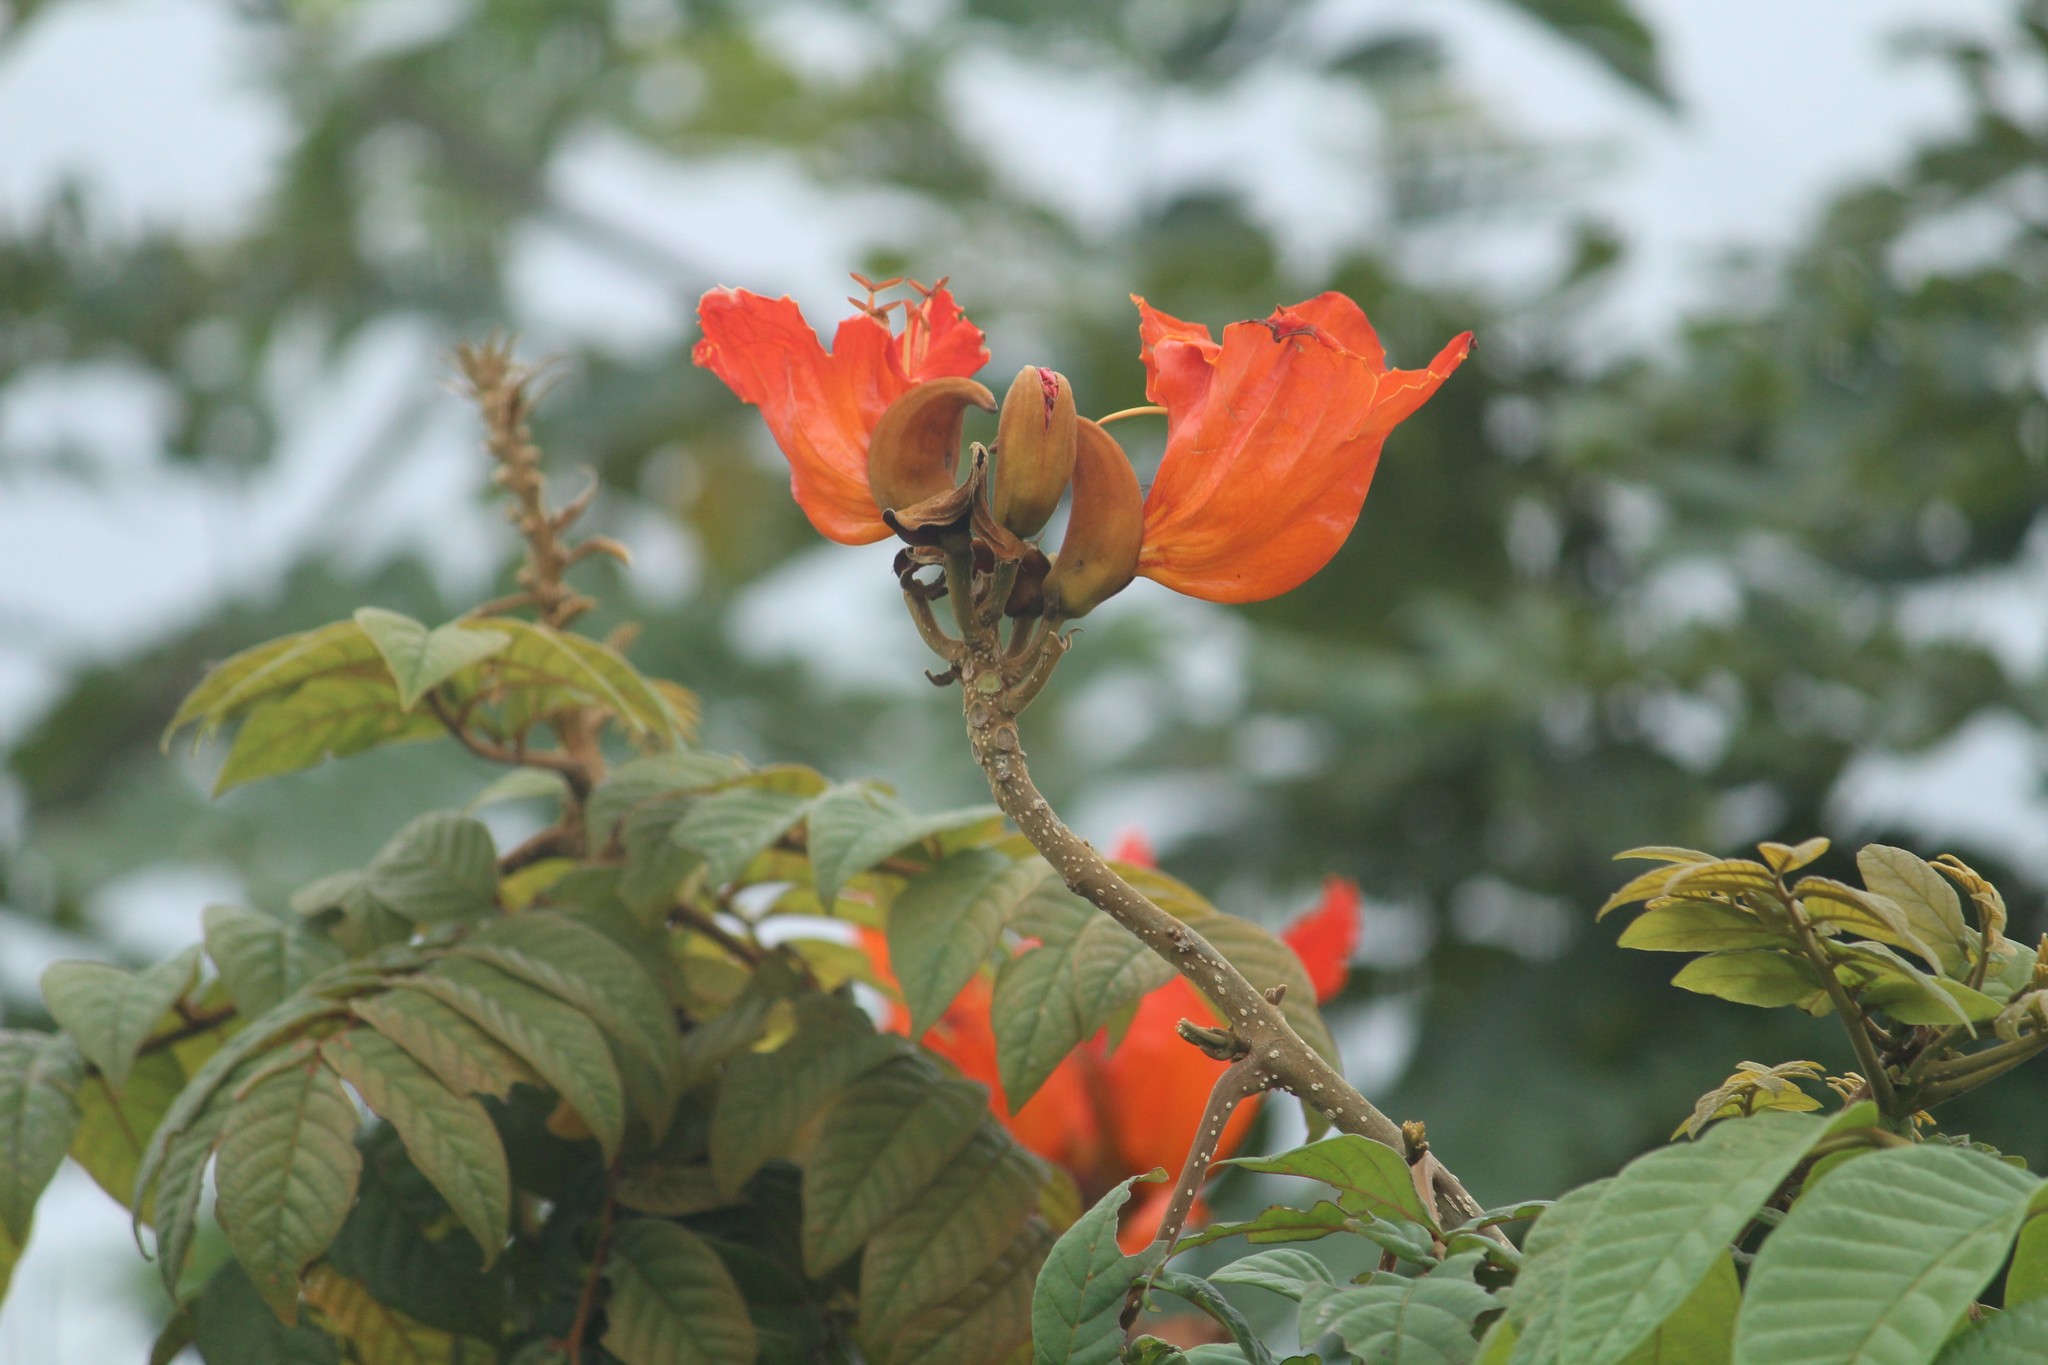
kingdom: Plantae
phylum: Tracheophyta
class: Magnoliopsida
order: Lamiales
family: Bignoniaceae
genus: Spathodea
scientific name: Spathodea campanulata
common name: African tuliptree
